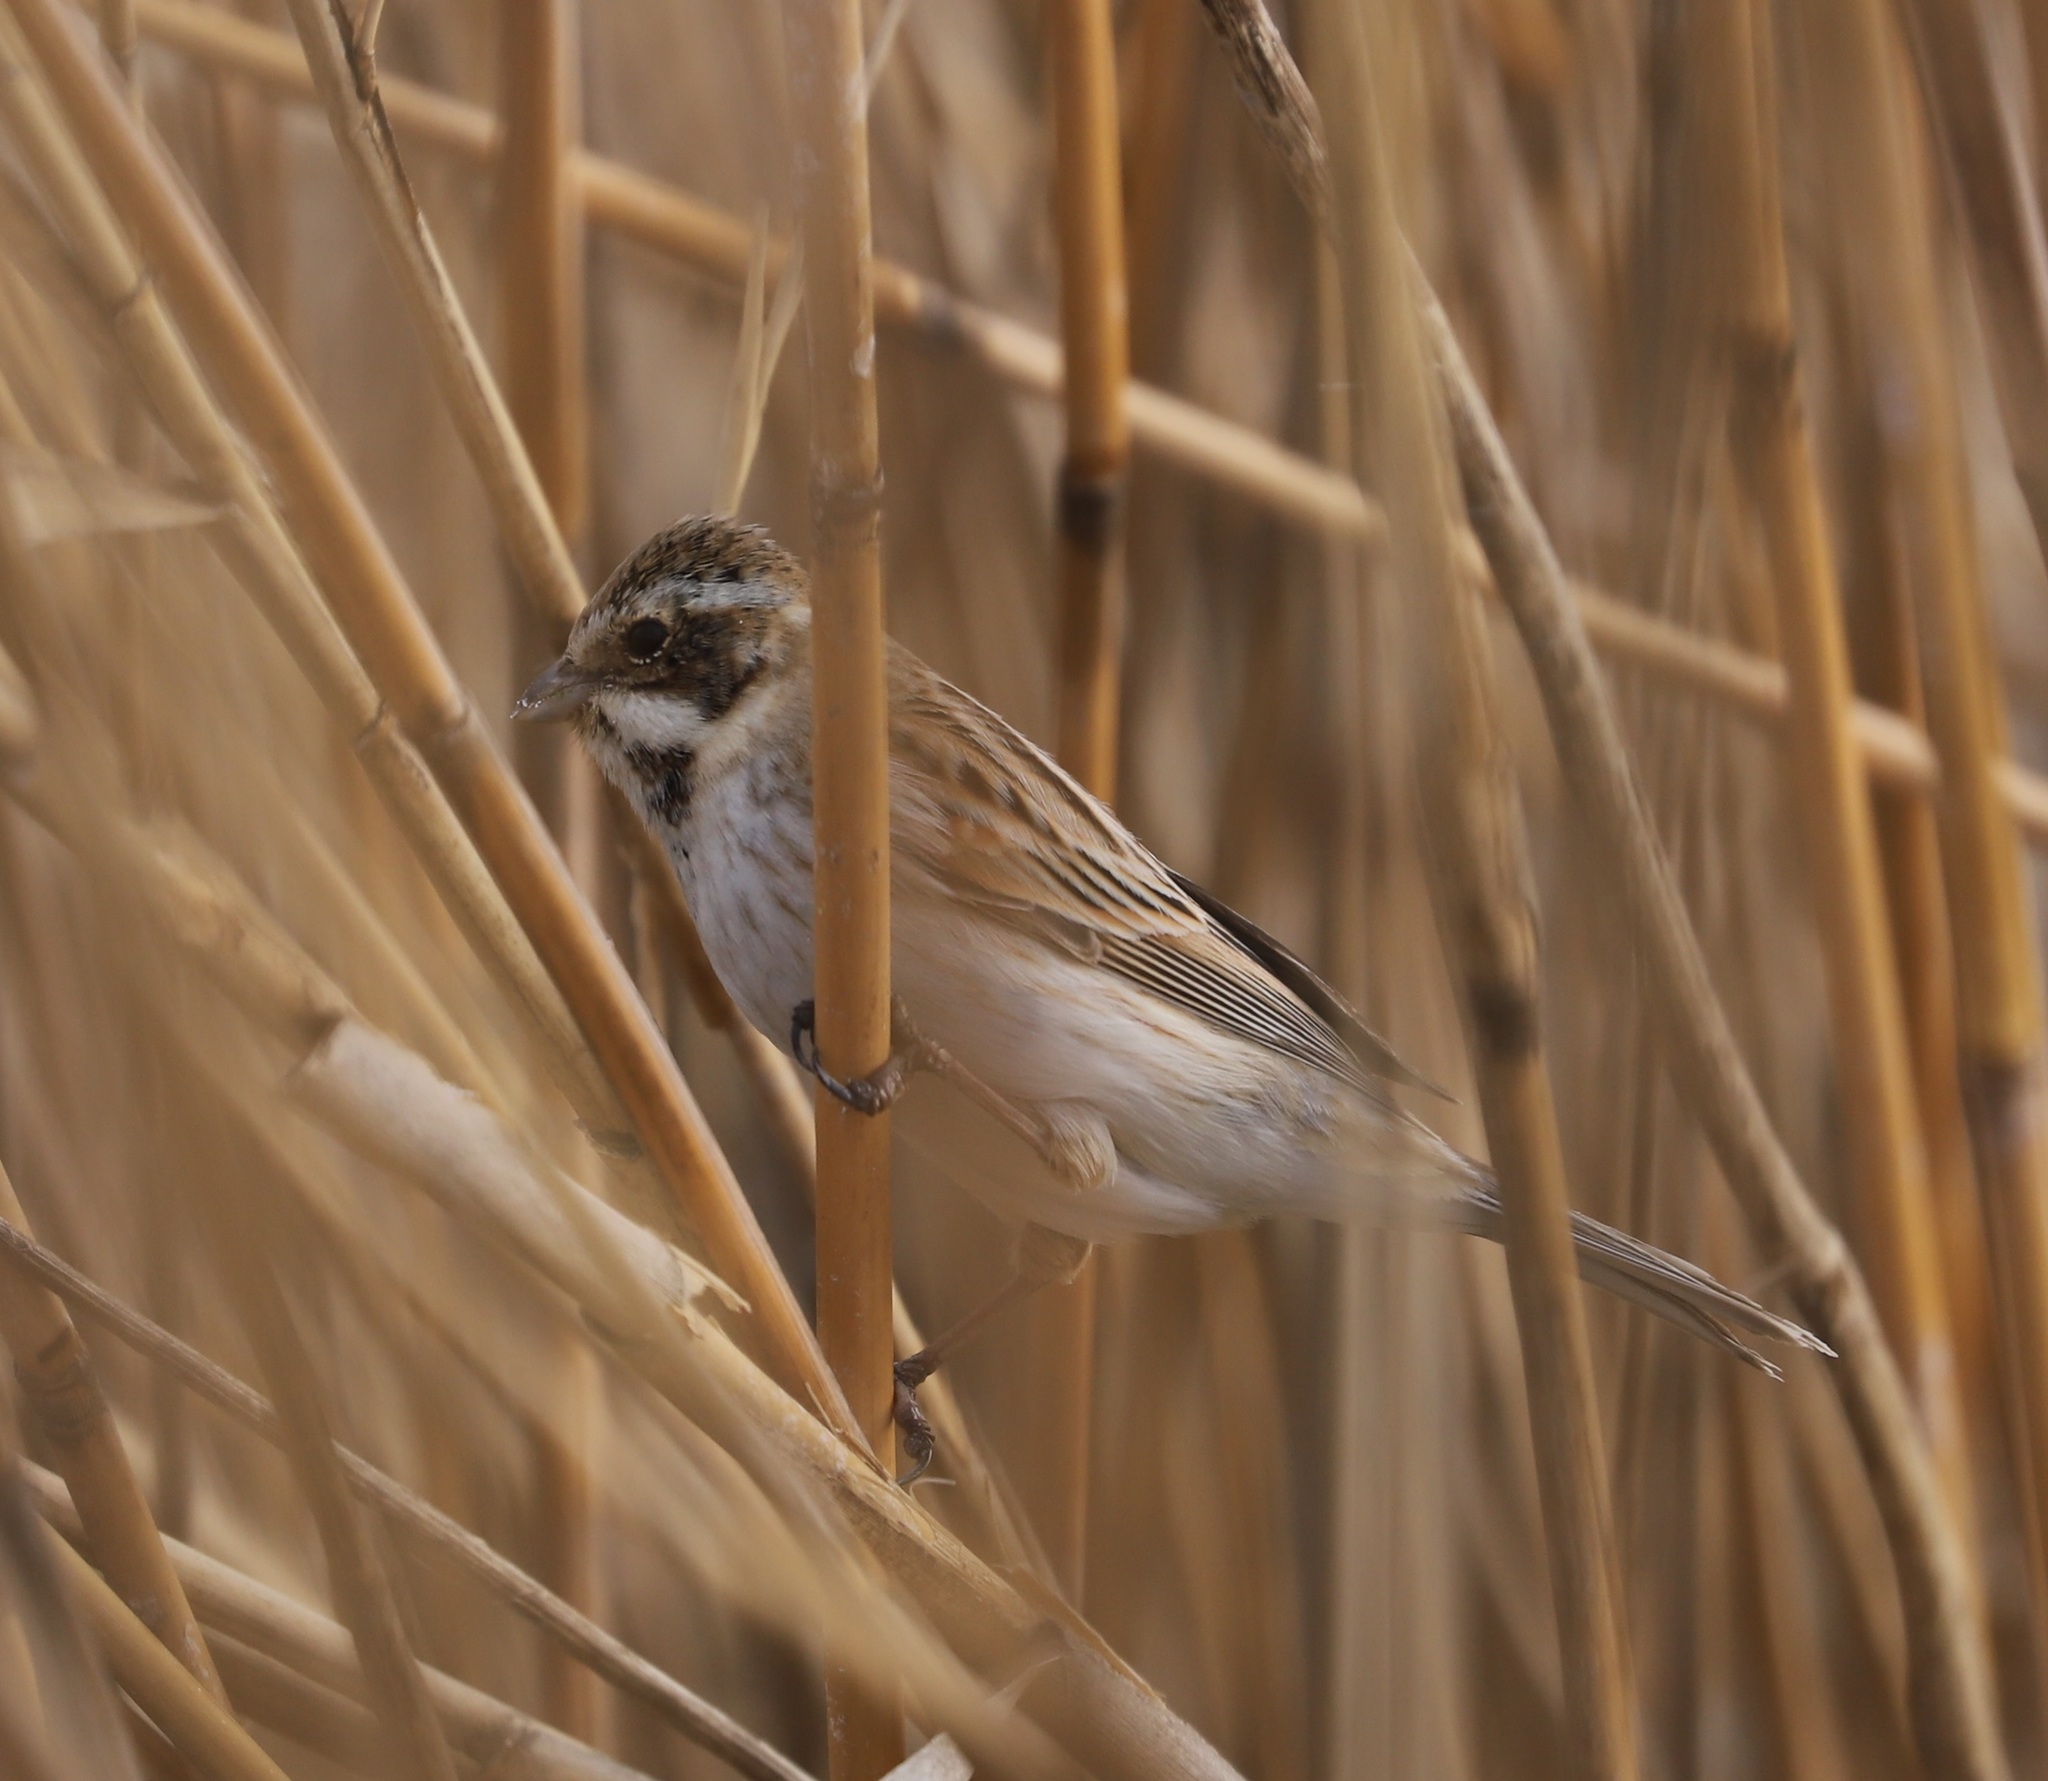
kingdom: Animalia
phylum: Chordata
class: Aves
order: Passeriformes
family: Emberizidae
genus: Emberiza
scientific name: Emberiza schoeniclus
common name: Reed bunting
